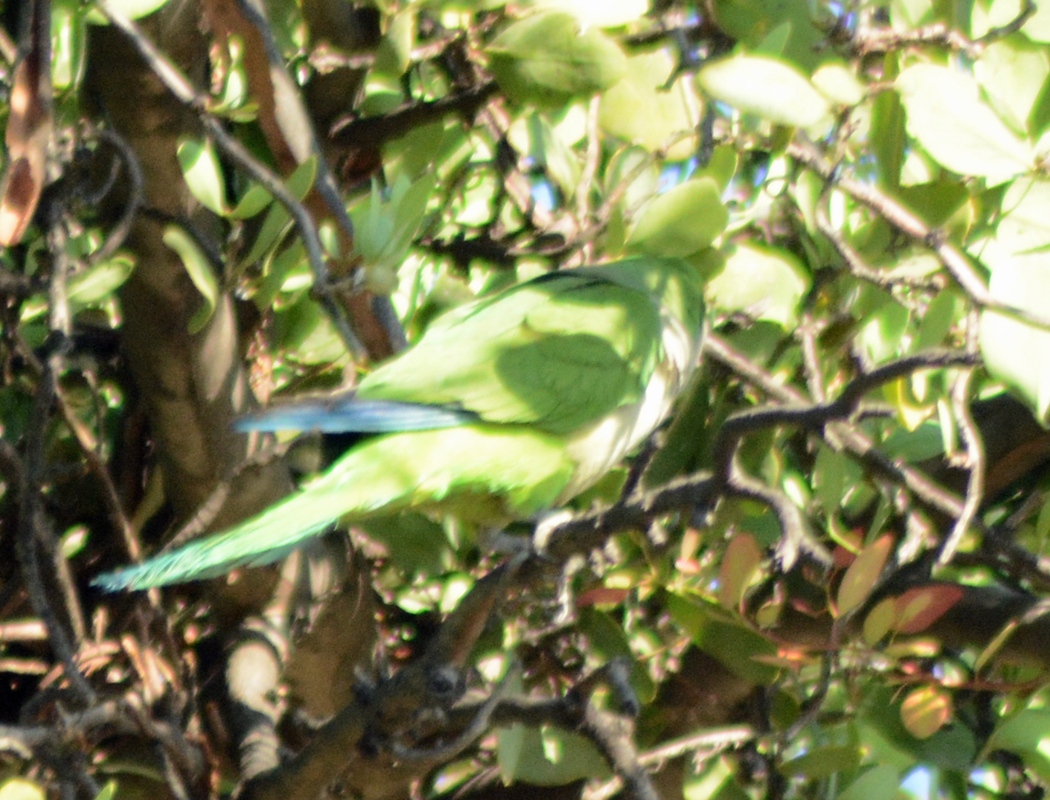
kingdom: Animalia
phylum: Chordata
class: Aves
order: Psittaciformes
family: Psittacidae
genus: Myiopsitta
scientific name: Myiopsitta monachus
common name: Monk parakeet
